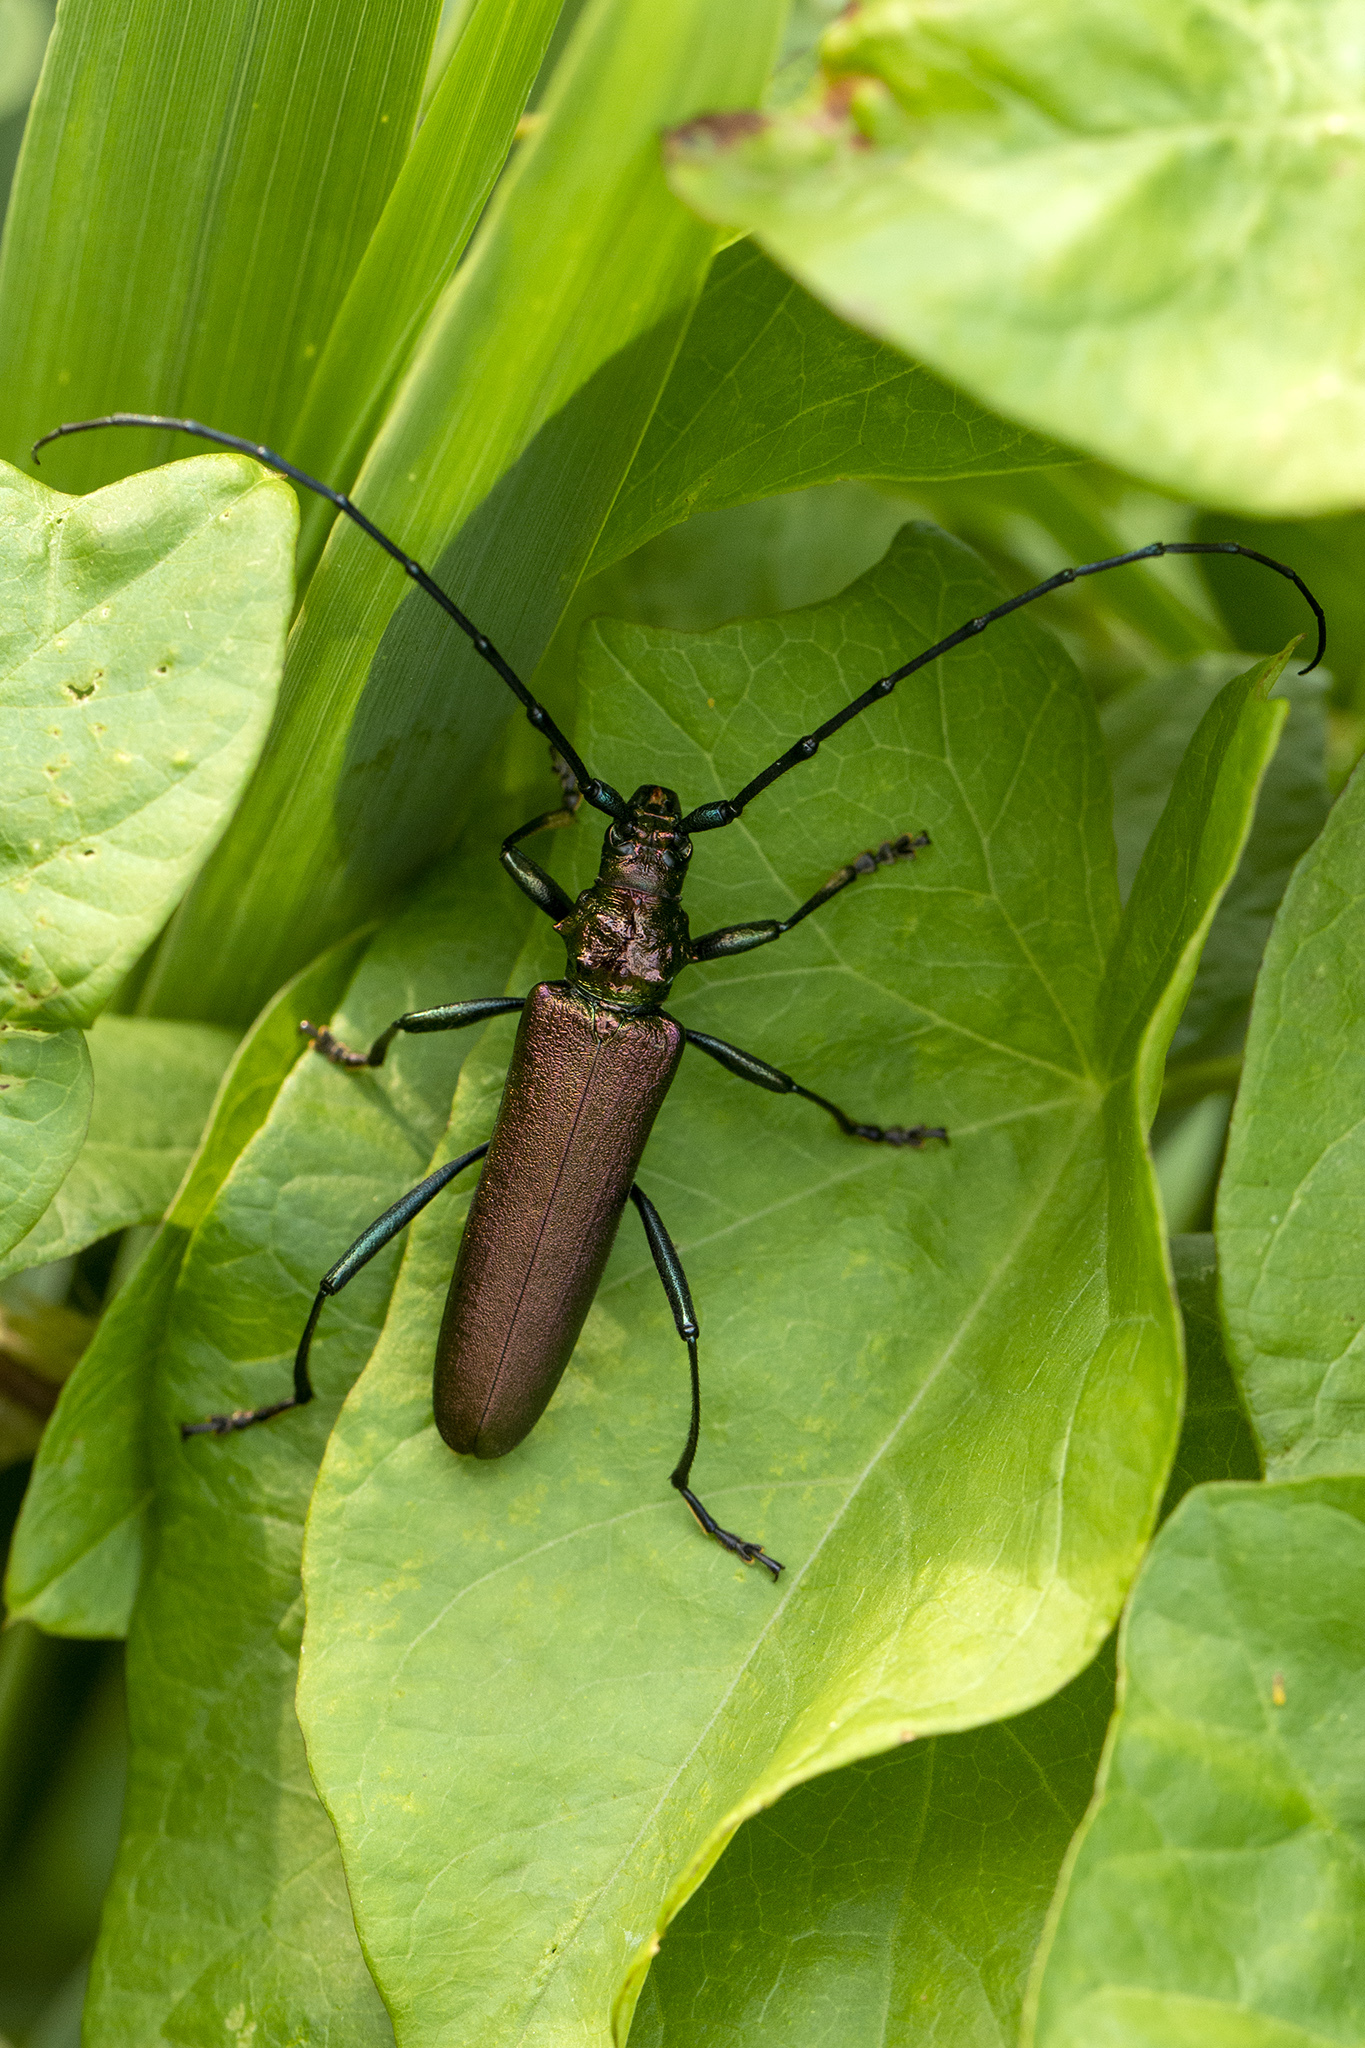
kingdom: Animalia
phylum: Arthropoda
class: Insecta
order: Coleoptera
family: Cerambycidae
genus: Aromia
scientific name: Aromia moschata
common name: Musk beetle
